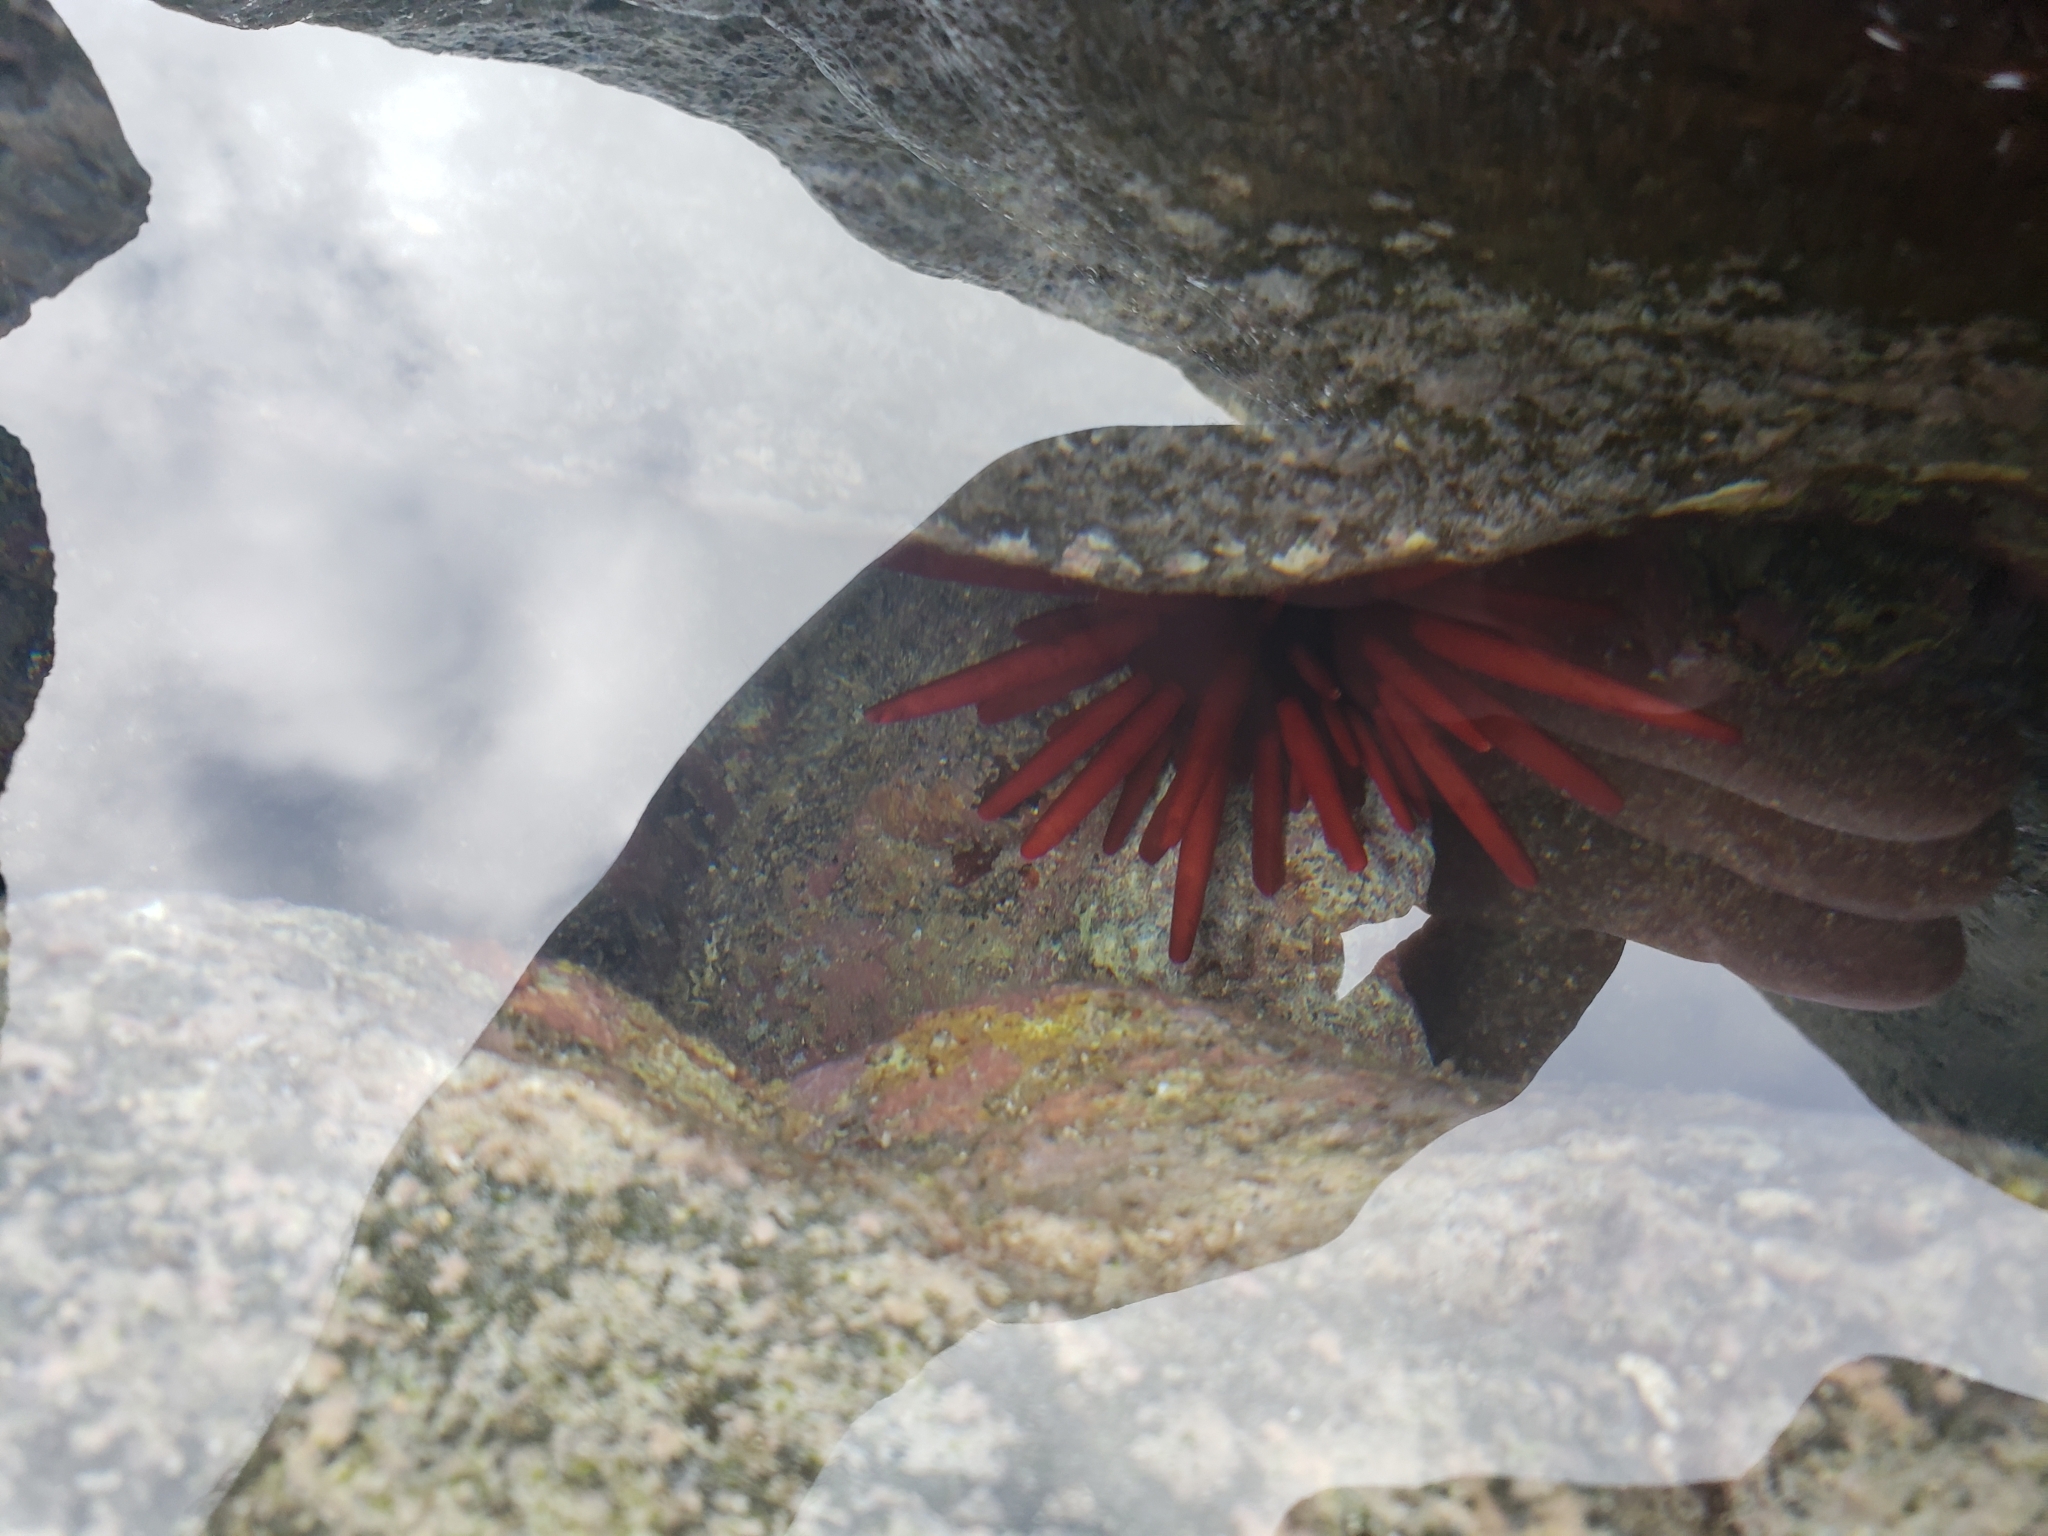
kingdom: Animalia
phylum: Echinodermata
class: Echinoidea
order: Camarodonta
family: Echinometridae
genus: Heterocentrotus
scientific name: Heterocentrotus mamillatus
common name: Slate pencil urchin
